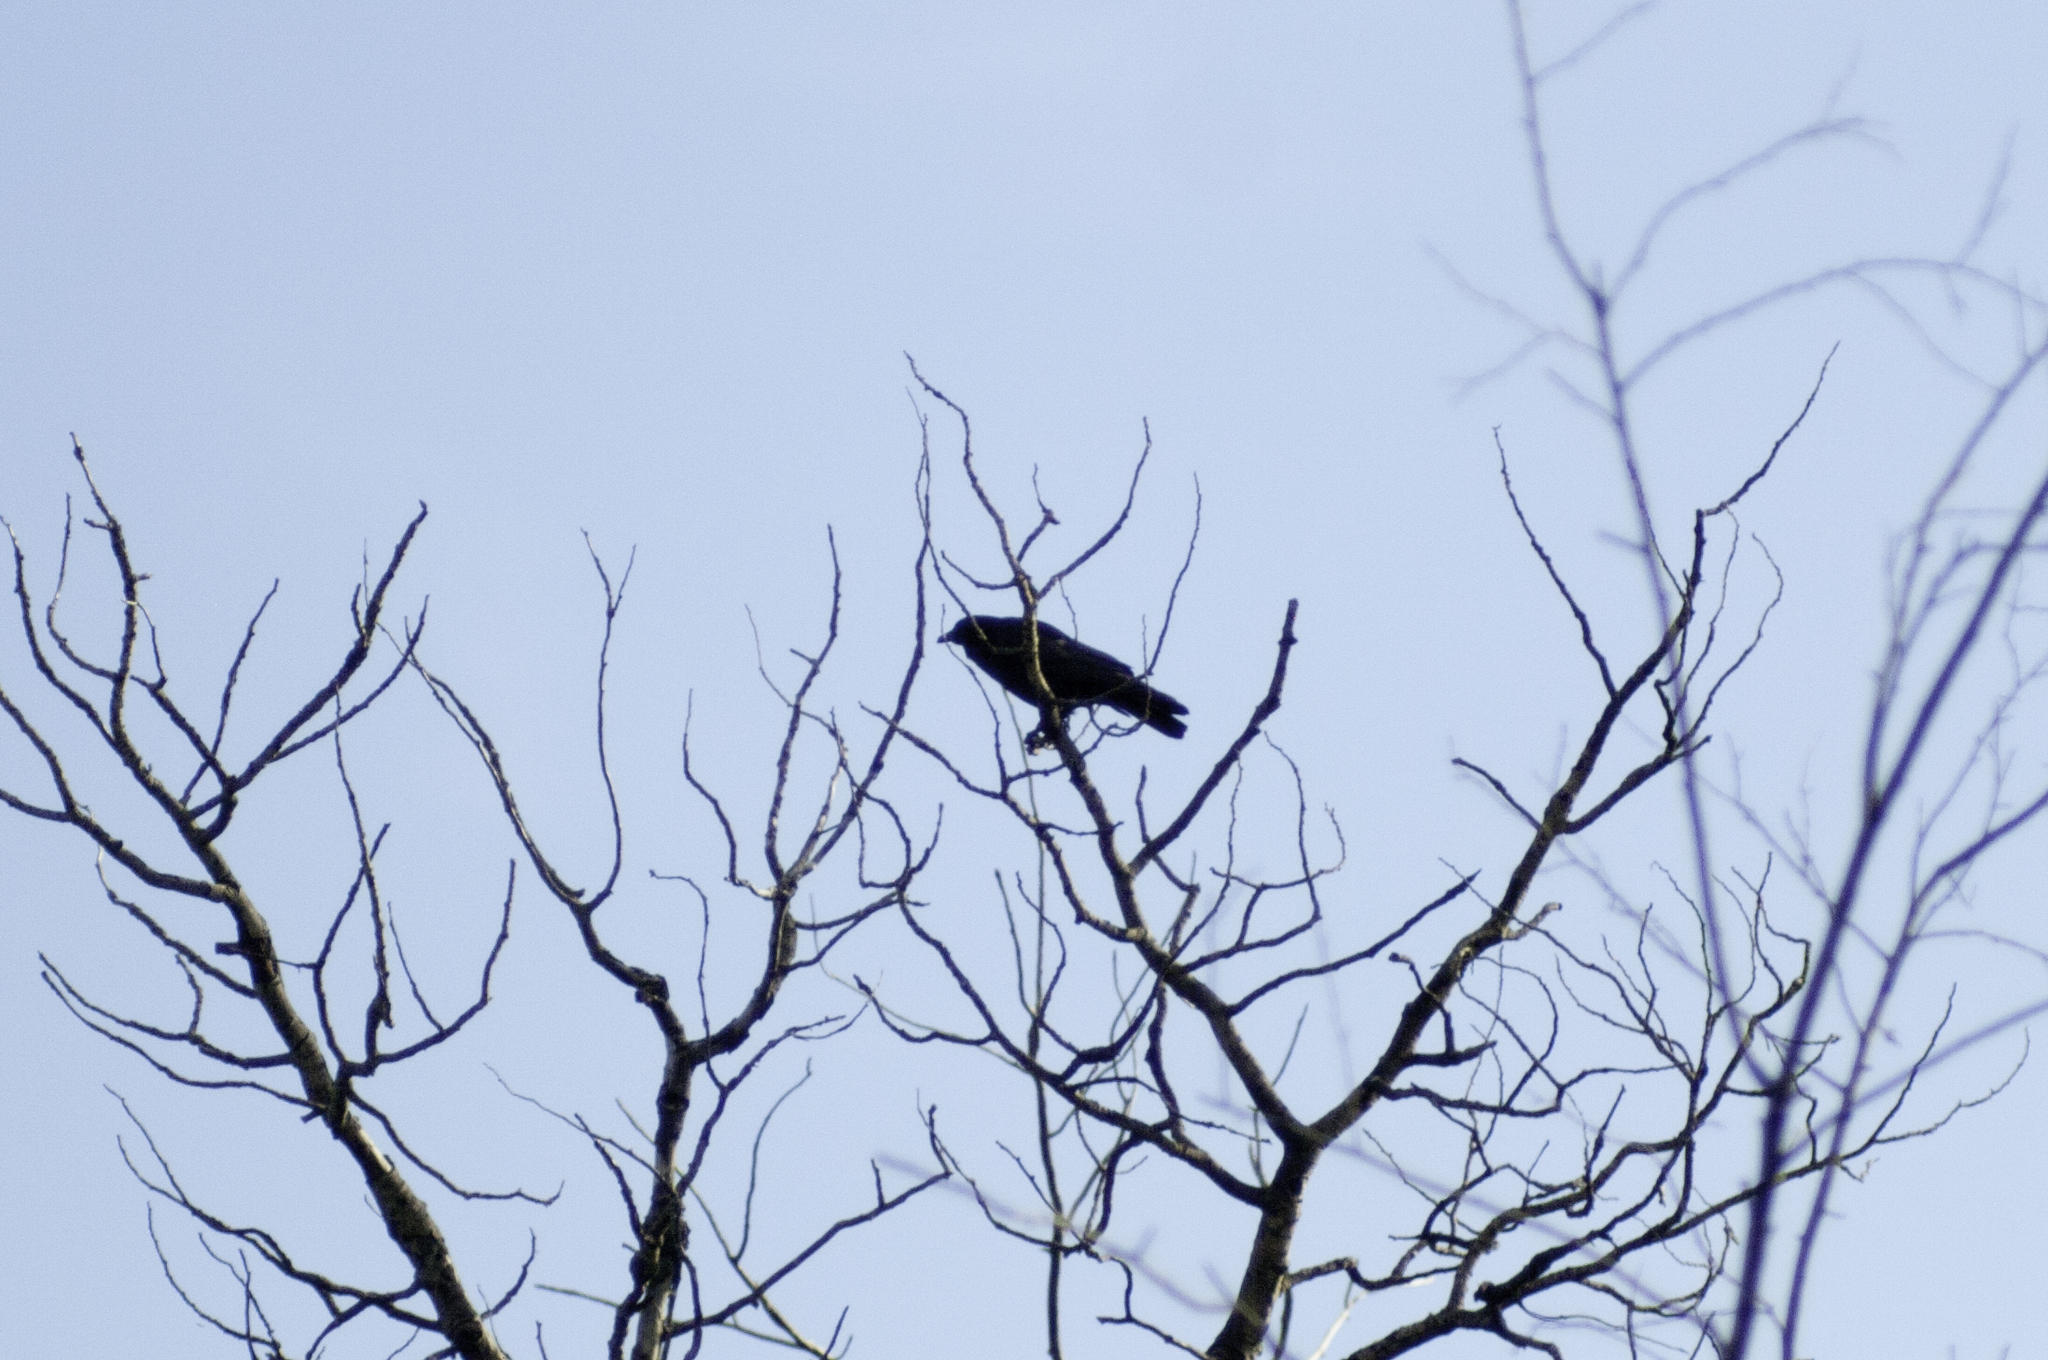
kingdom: Animalia
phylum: Chordata
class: Aves
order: Passeriformes
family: Corvidae
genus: Corvus
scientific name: Corvus brachyrhynchos
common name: American crow
